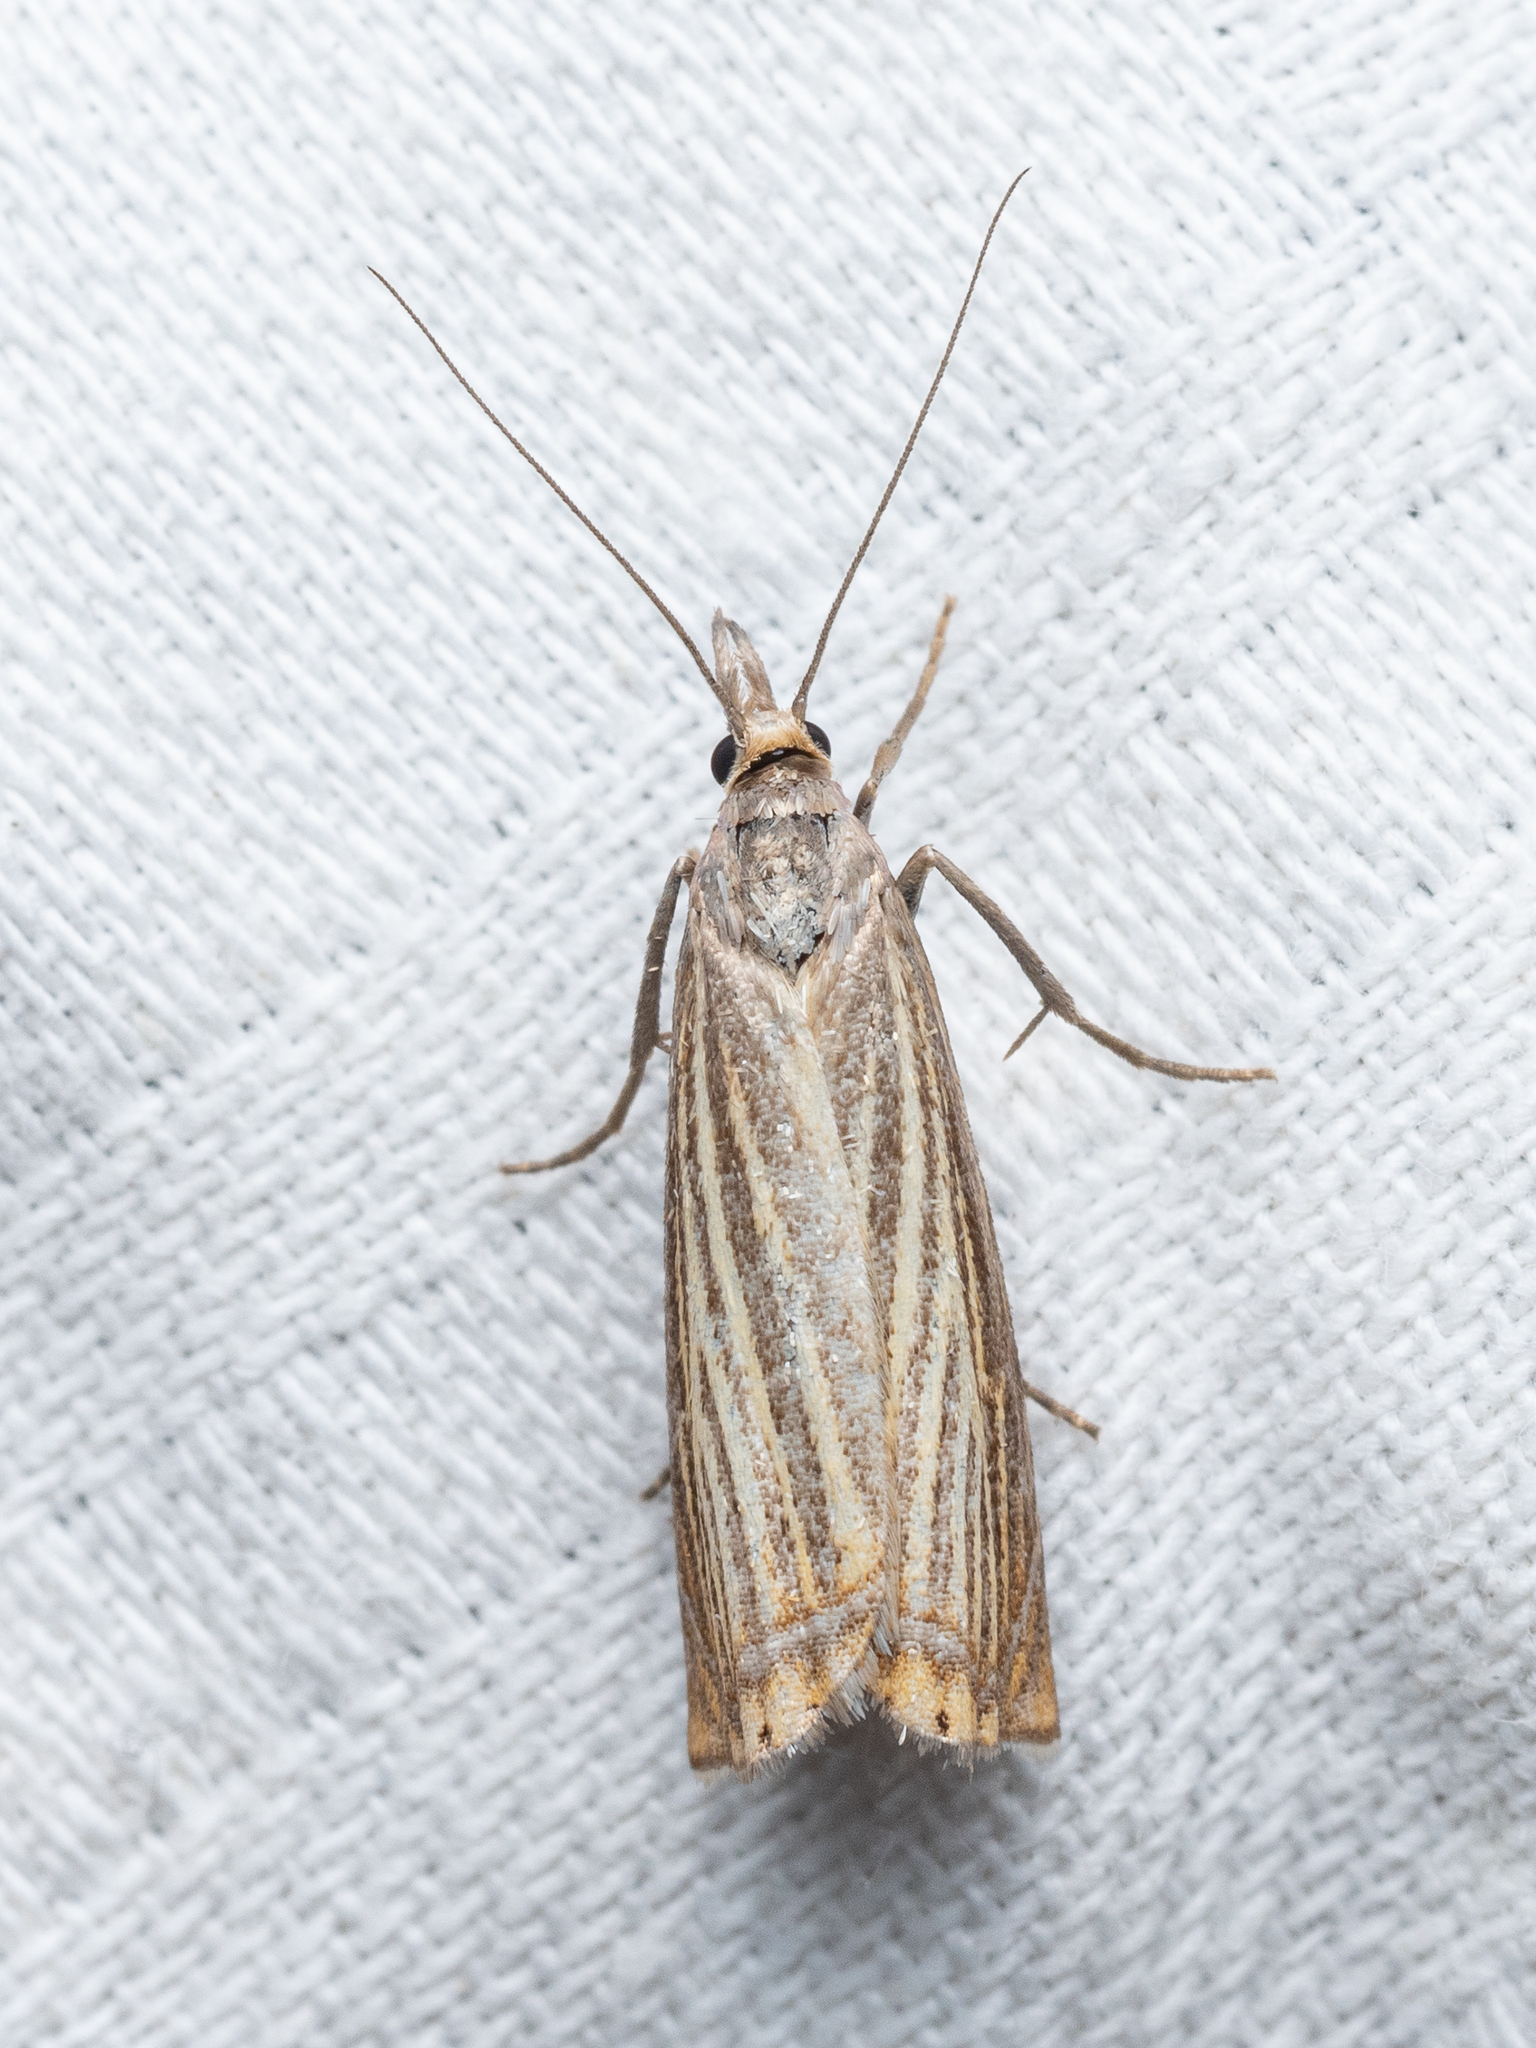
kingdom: Animalia
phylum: Arthropoda
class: Insecta
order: Lepidoptera
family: Crambidae
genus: Chrysoteuchia
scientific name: Chrysoteuchia culmella
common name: Garden grass-veneer
